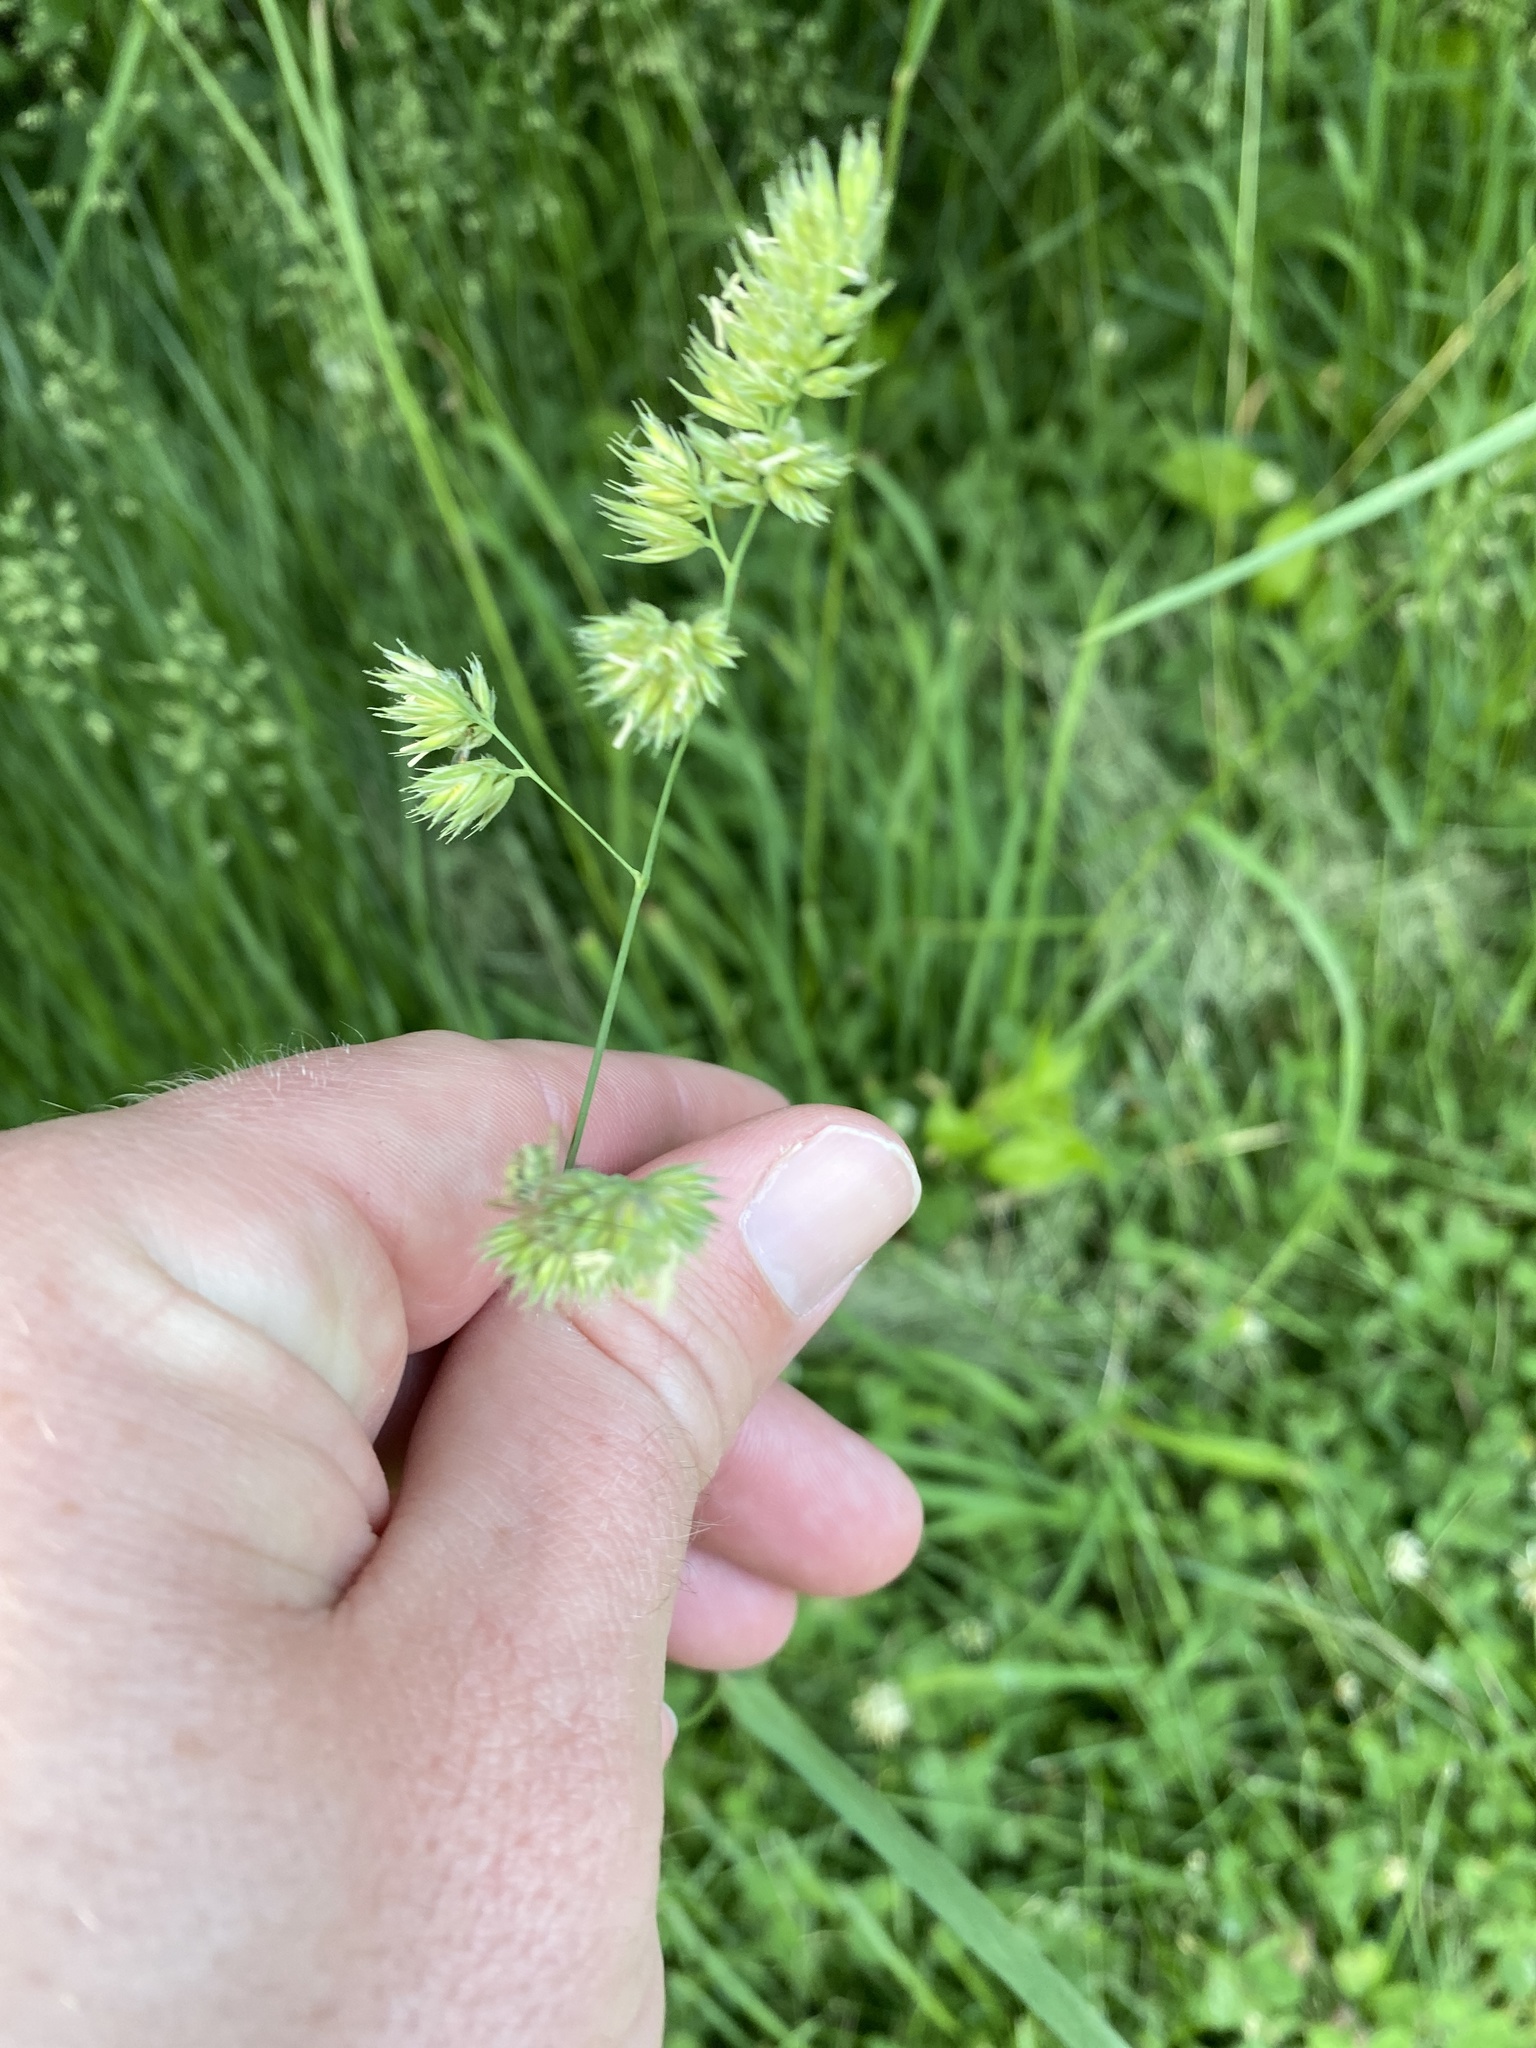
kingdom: Plantae
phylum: Tracheophyta
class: Liliopsida
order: Poales
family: Poaceae
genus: Dactylis
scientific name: Dactylis glomerata
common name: Orchardgrass
